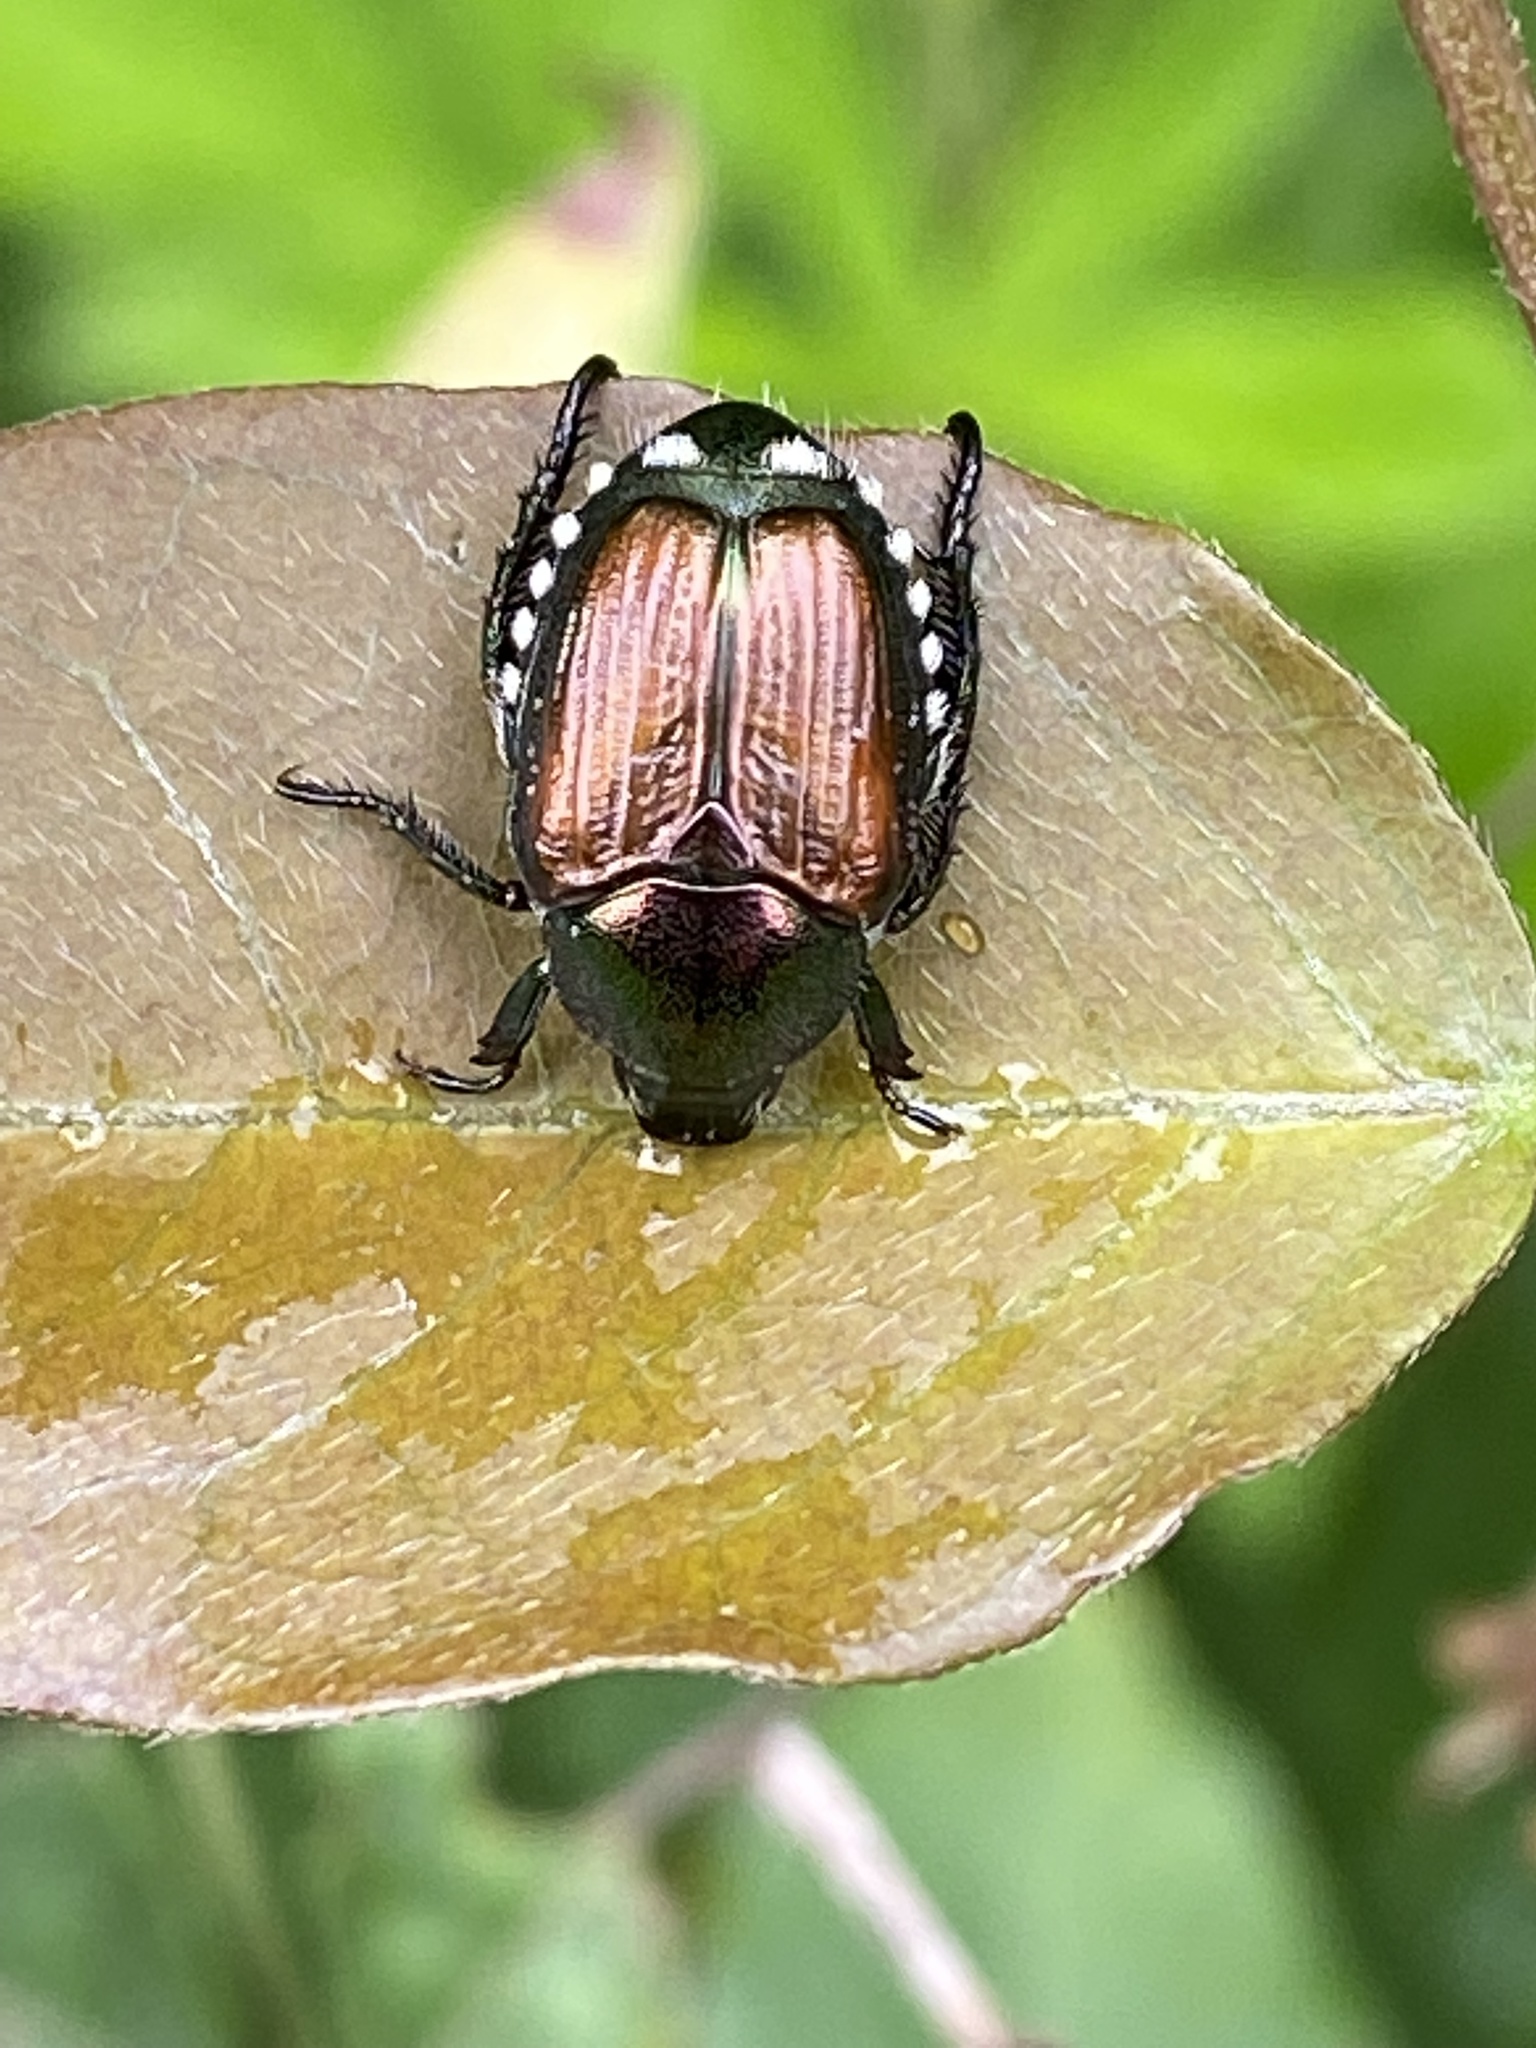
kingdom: Animalia
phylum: Arthropoda
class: Insecta
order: Coleoptera
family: Scarabaeidae
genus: Popillia
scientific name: Popillia japonica
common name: Japanese beetle
